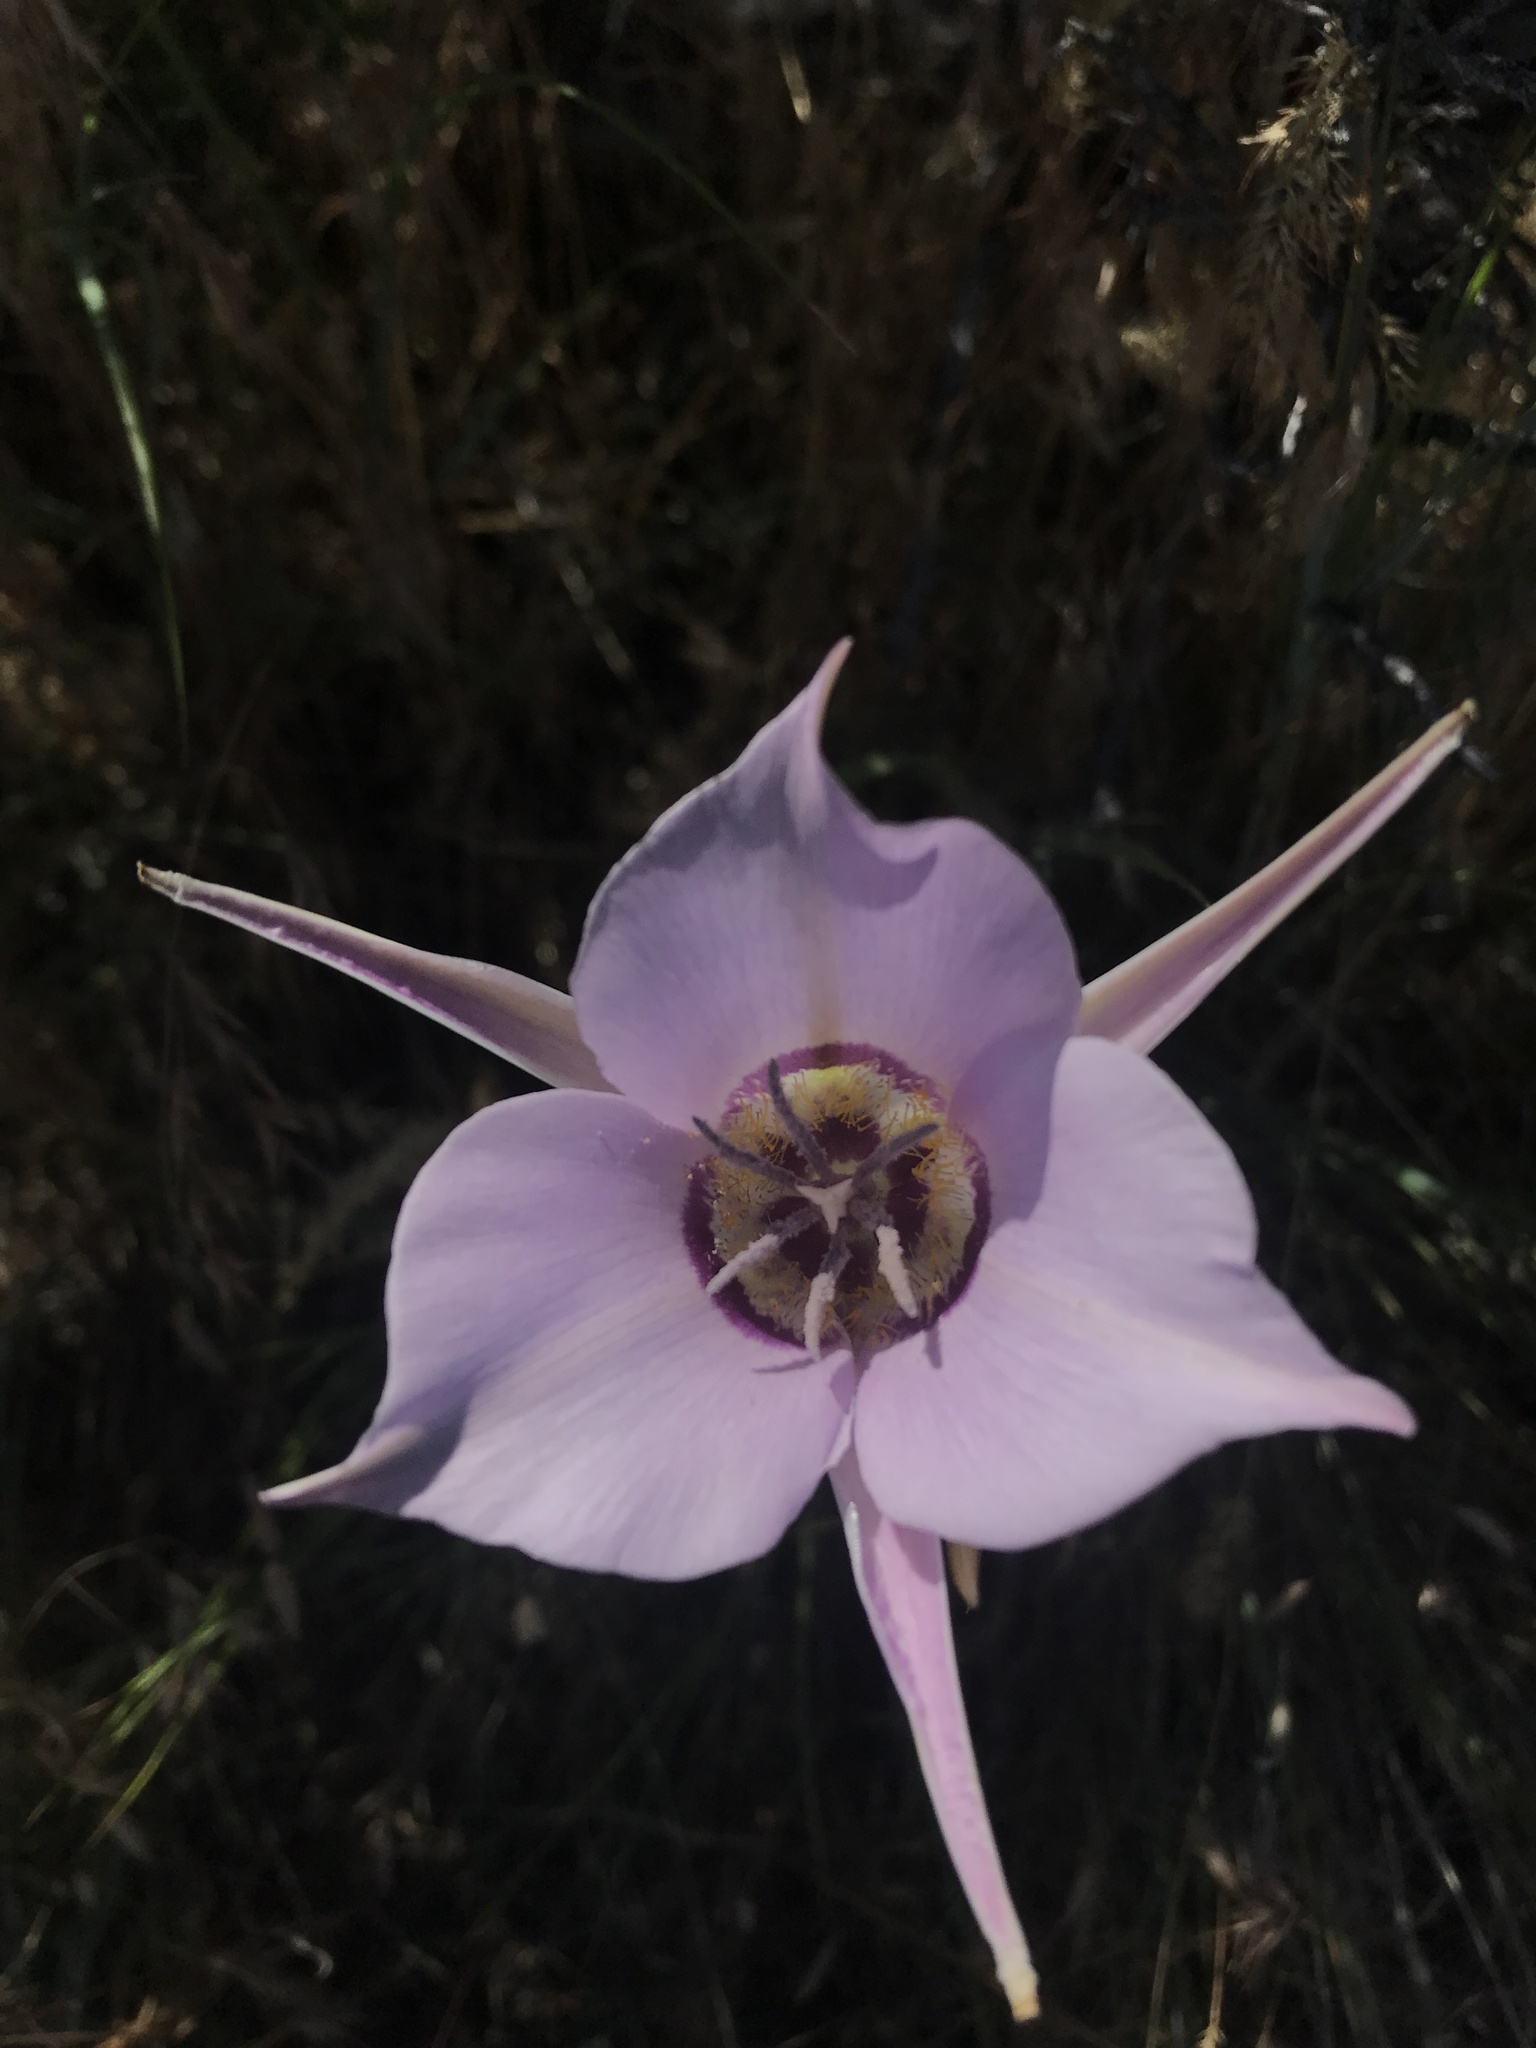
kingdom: Plantae
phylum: Tracheophyta
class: Liliopsida
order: Liliales
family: Liliaceae
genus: Calochortus
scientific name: Calochortus macrocarpus
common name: Green-band mariposa lily
